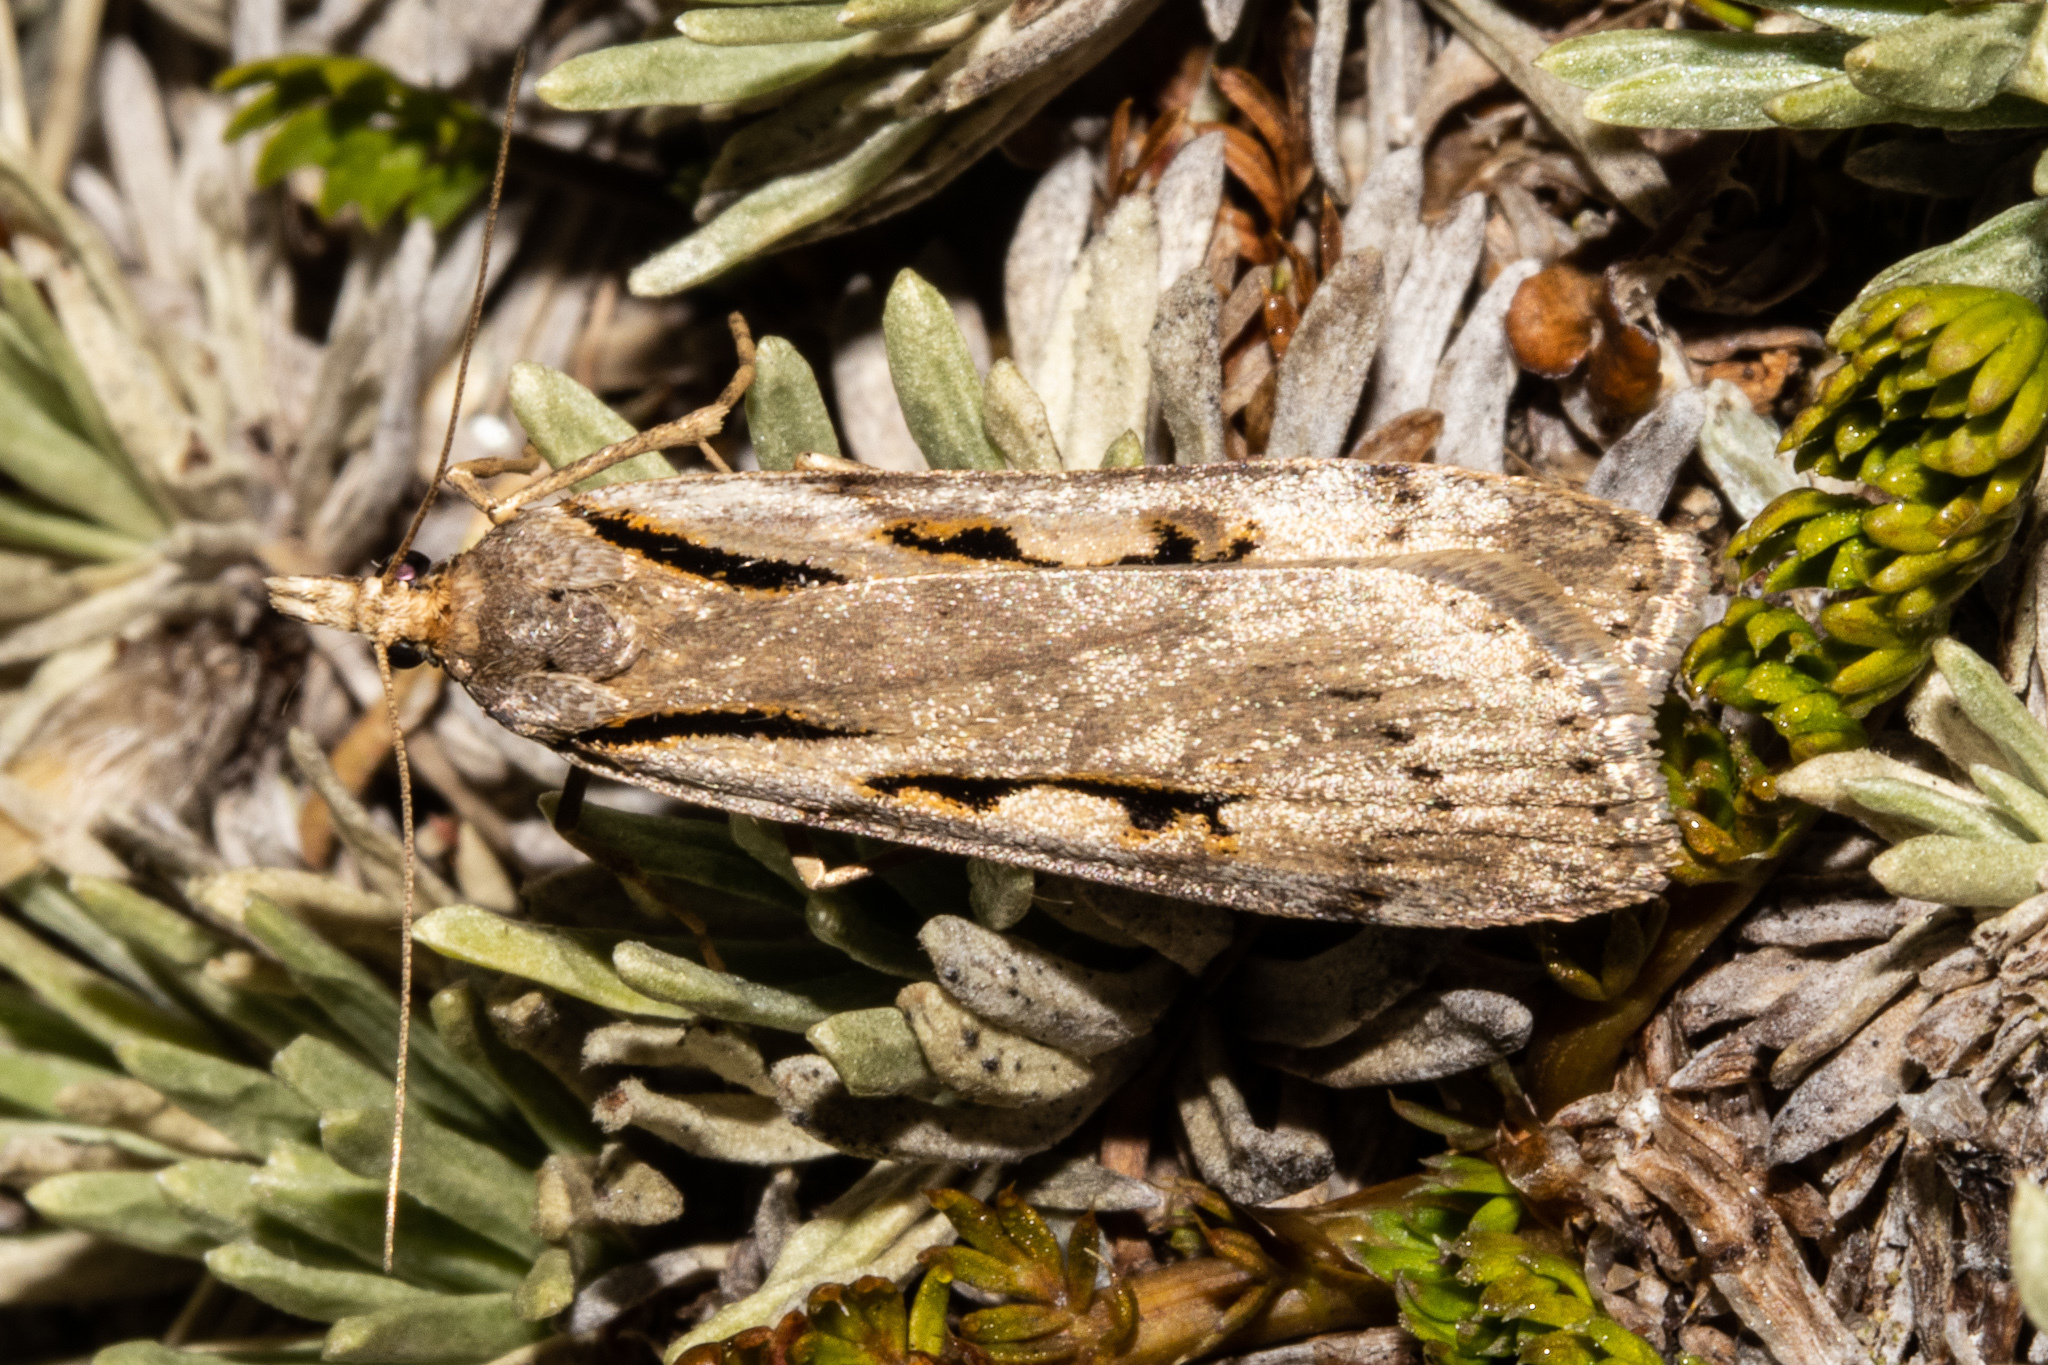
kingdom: Animalia
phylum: Arthropoda
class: Insecta
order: Lepidoptera
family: Crambidae
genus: Scoparia
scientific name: Scoparia rotuellus
